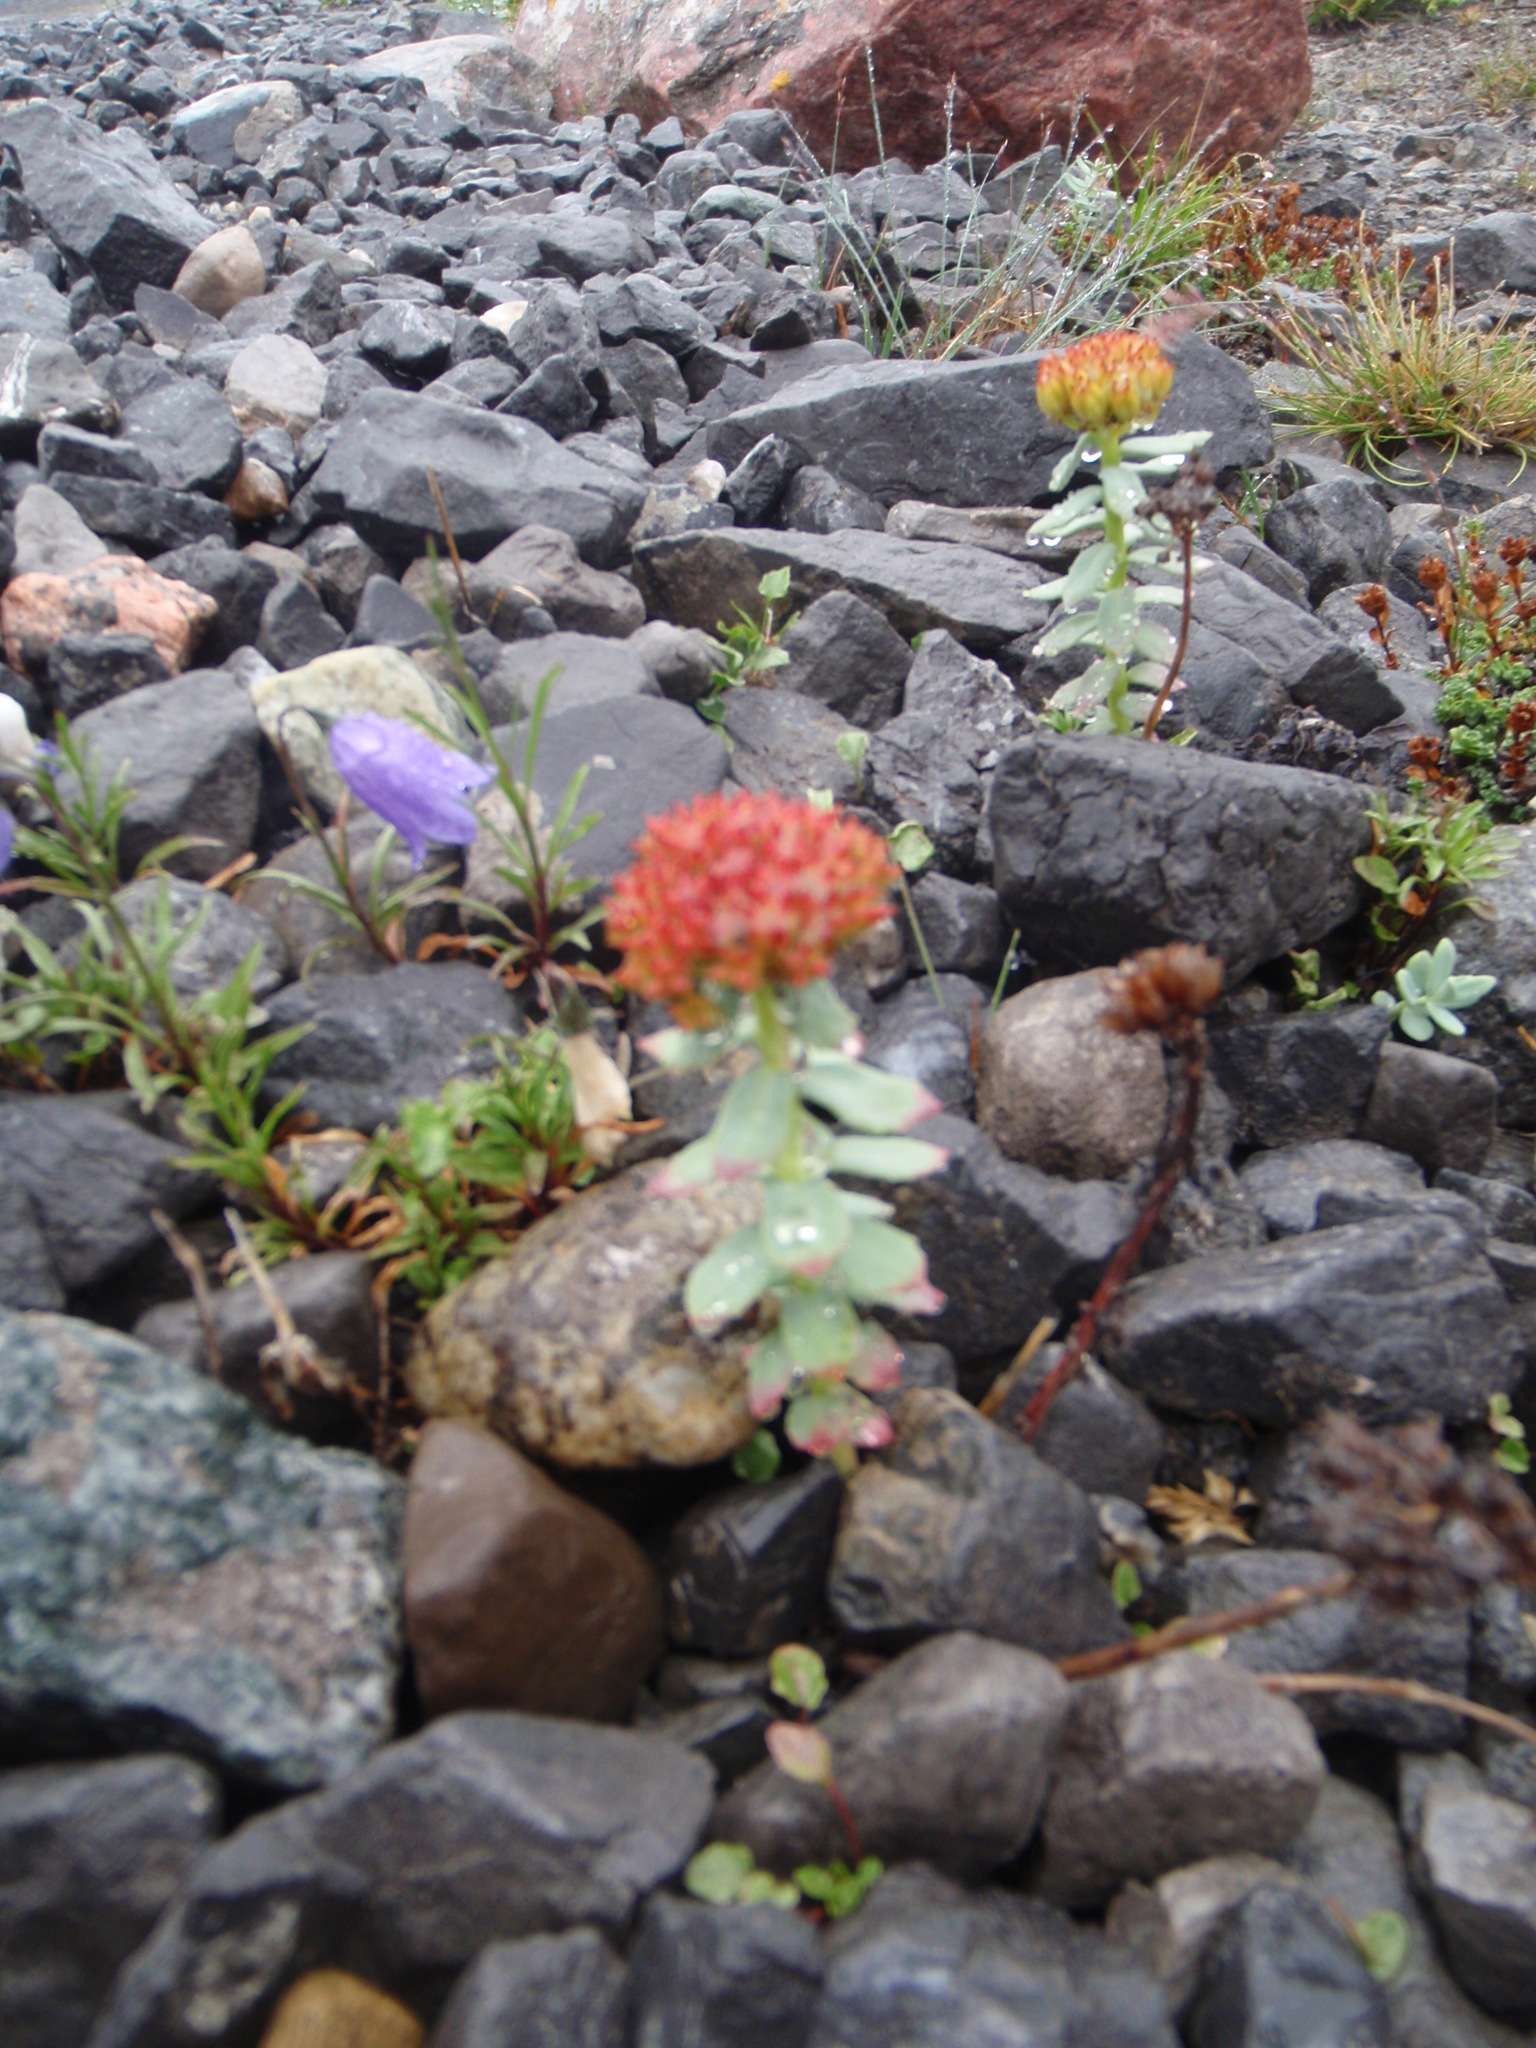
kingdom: Plantae
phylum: Tracheophyta
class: Magnoliopsida
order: Saxifragales
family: Crassulaceae
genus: Rhodiola
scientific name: Rhodiola rosea
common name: Roseroot
